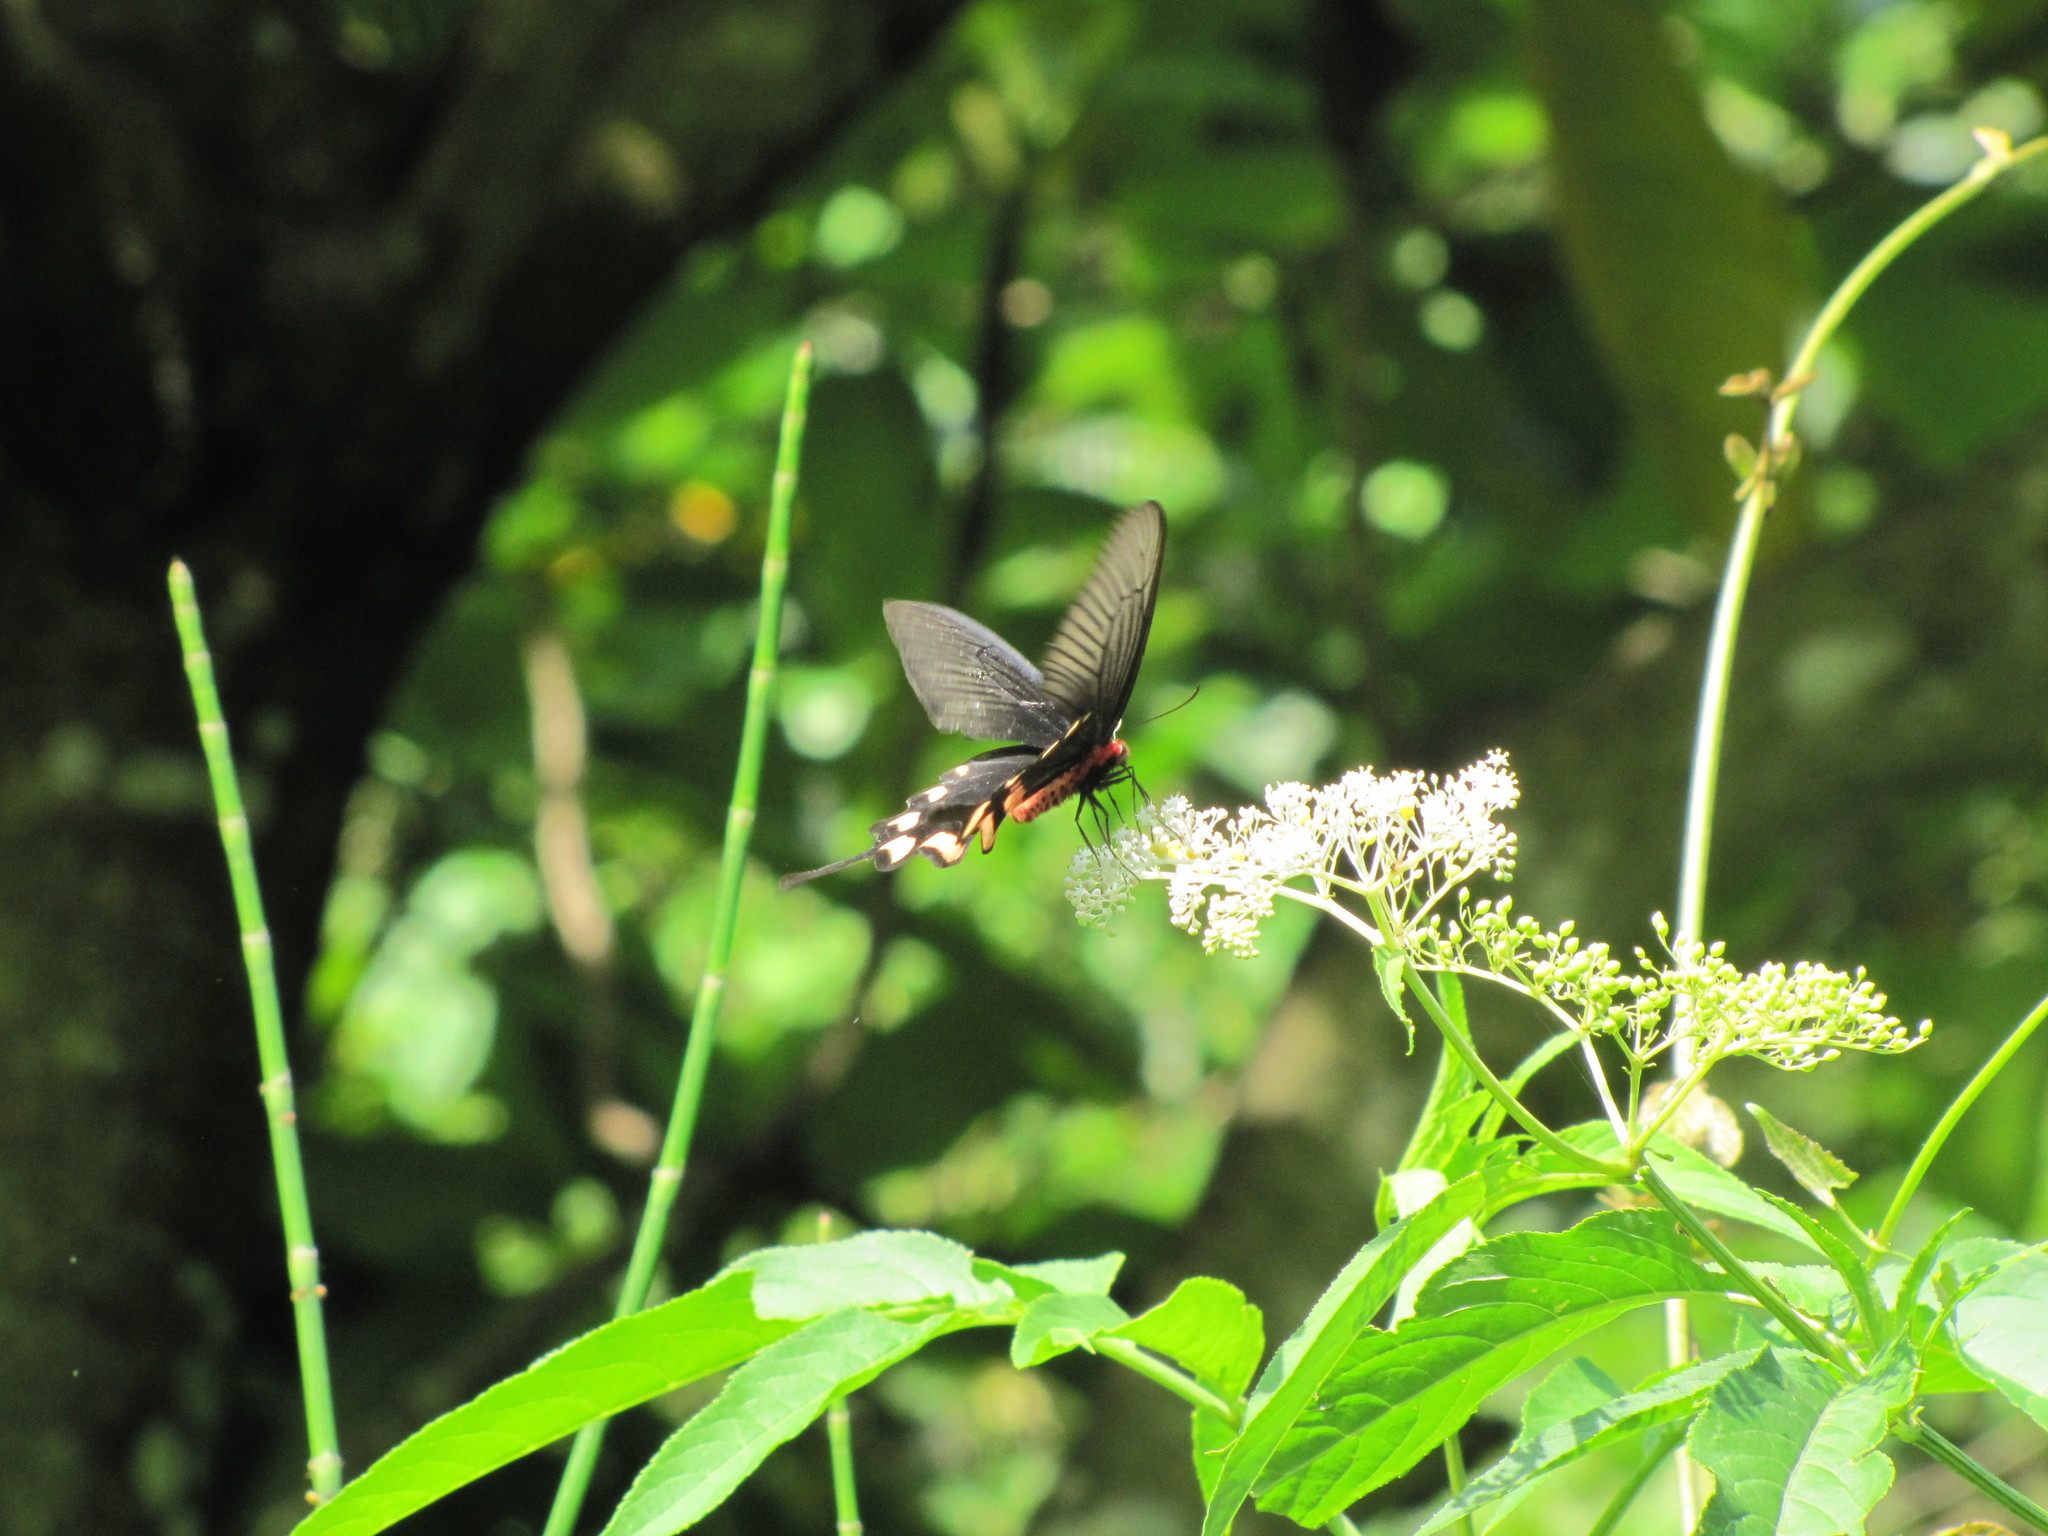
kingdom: Animalia
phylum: Arthropoda
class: Insecta
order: Lepidoptera
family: Papilionidae
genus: Byasa
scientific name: Byasa impediens
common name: Pink-spotted windmill
